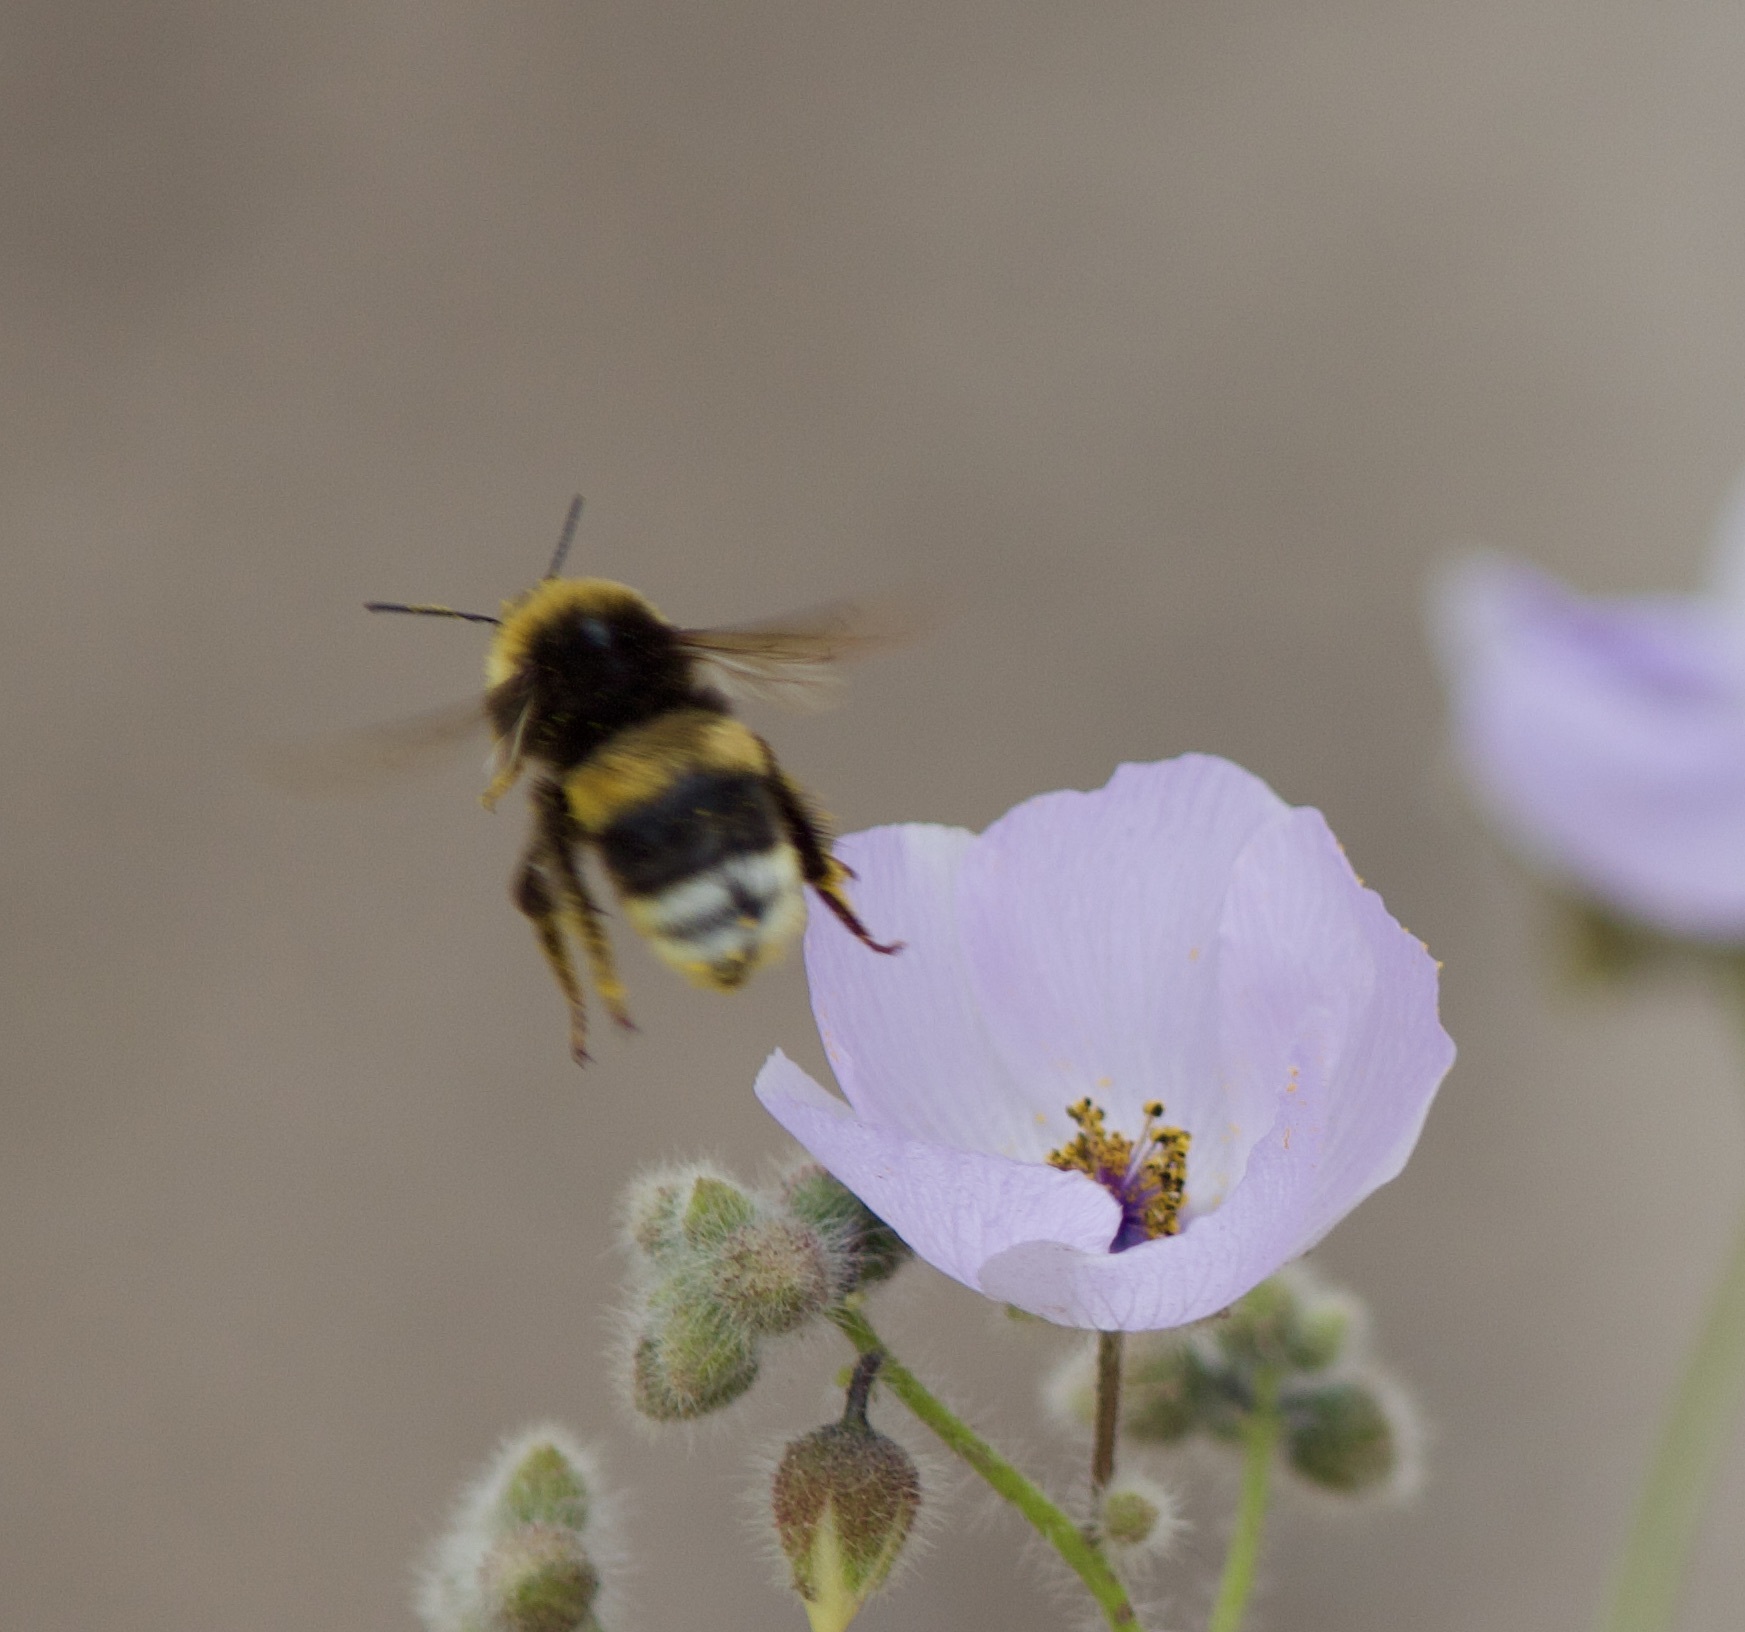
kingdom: Animalia
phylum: Arthropoda
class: Insecta
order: Hymenoptera
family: Apidae
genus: Bombus
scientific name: Bombus terrestris
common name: Buff-tailed bumblebee
